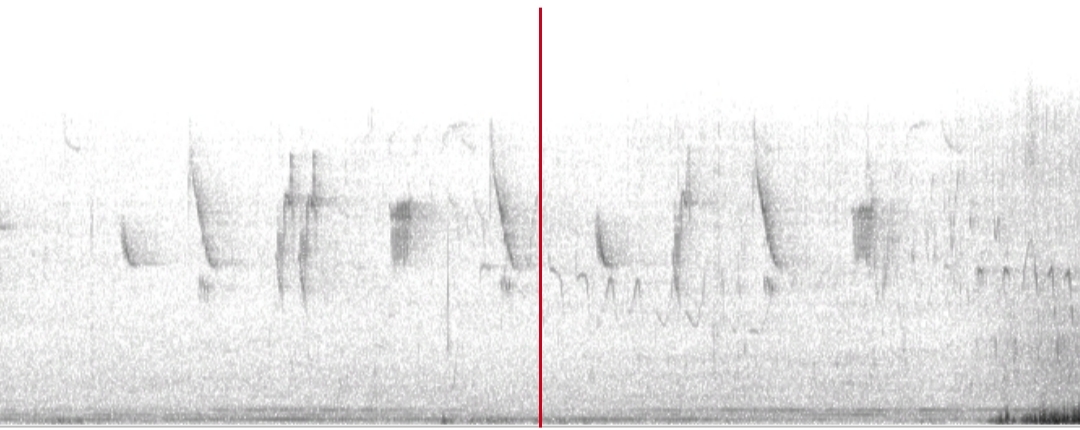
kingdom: Animalia
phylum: Chordata
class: Aves
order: Passeriformes
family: Emberizidae
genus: Emberiza
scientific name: Emberiza schoeniclus
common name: Reed bunting
